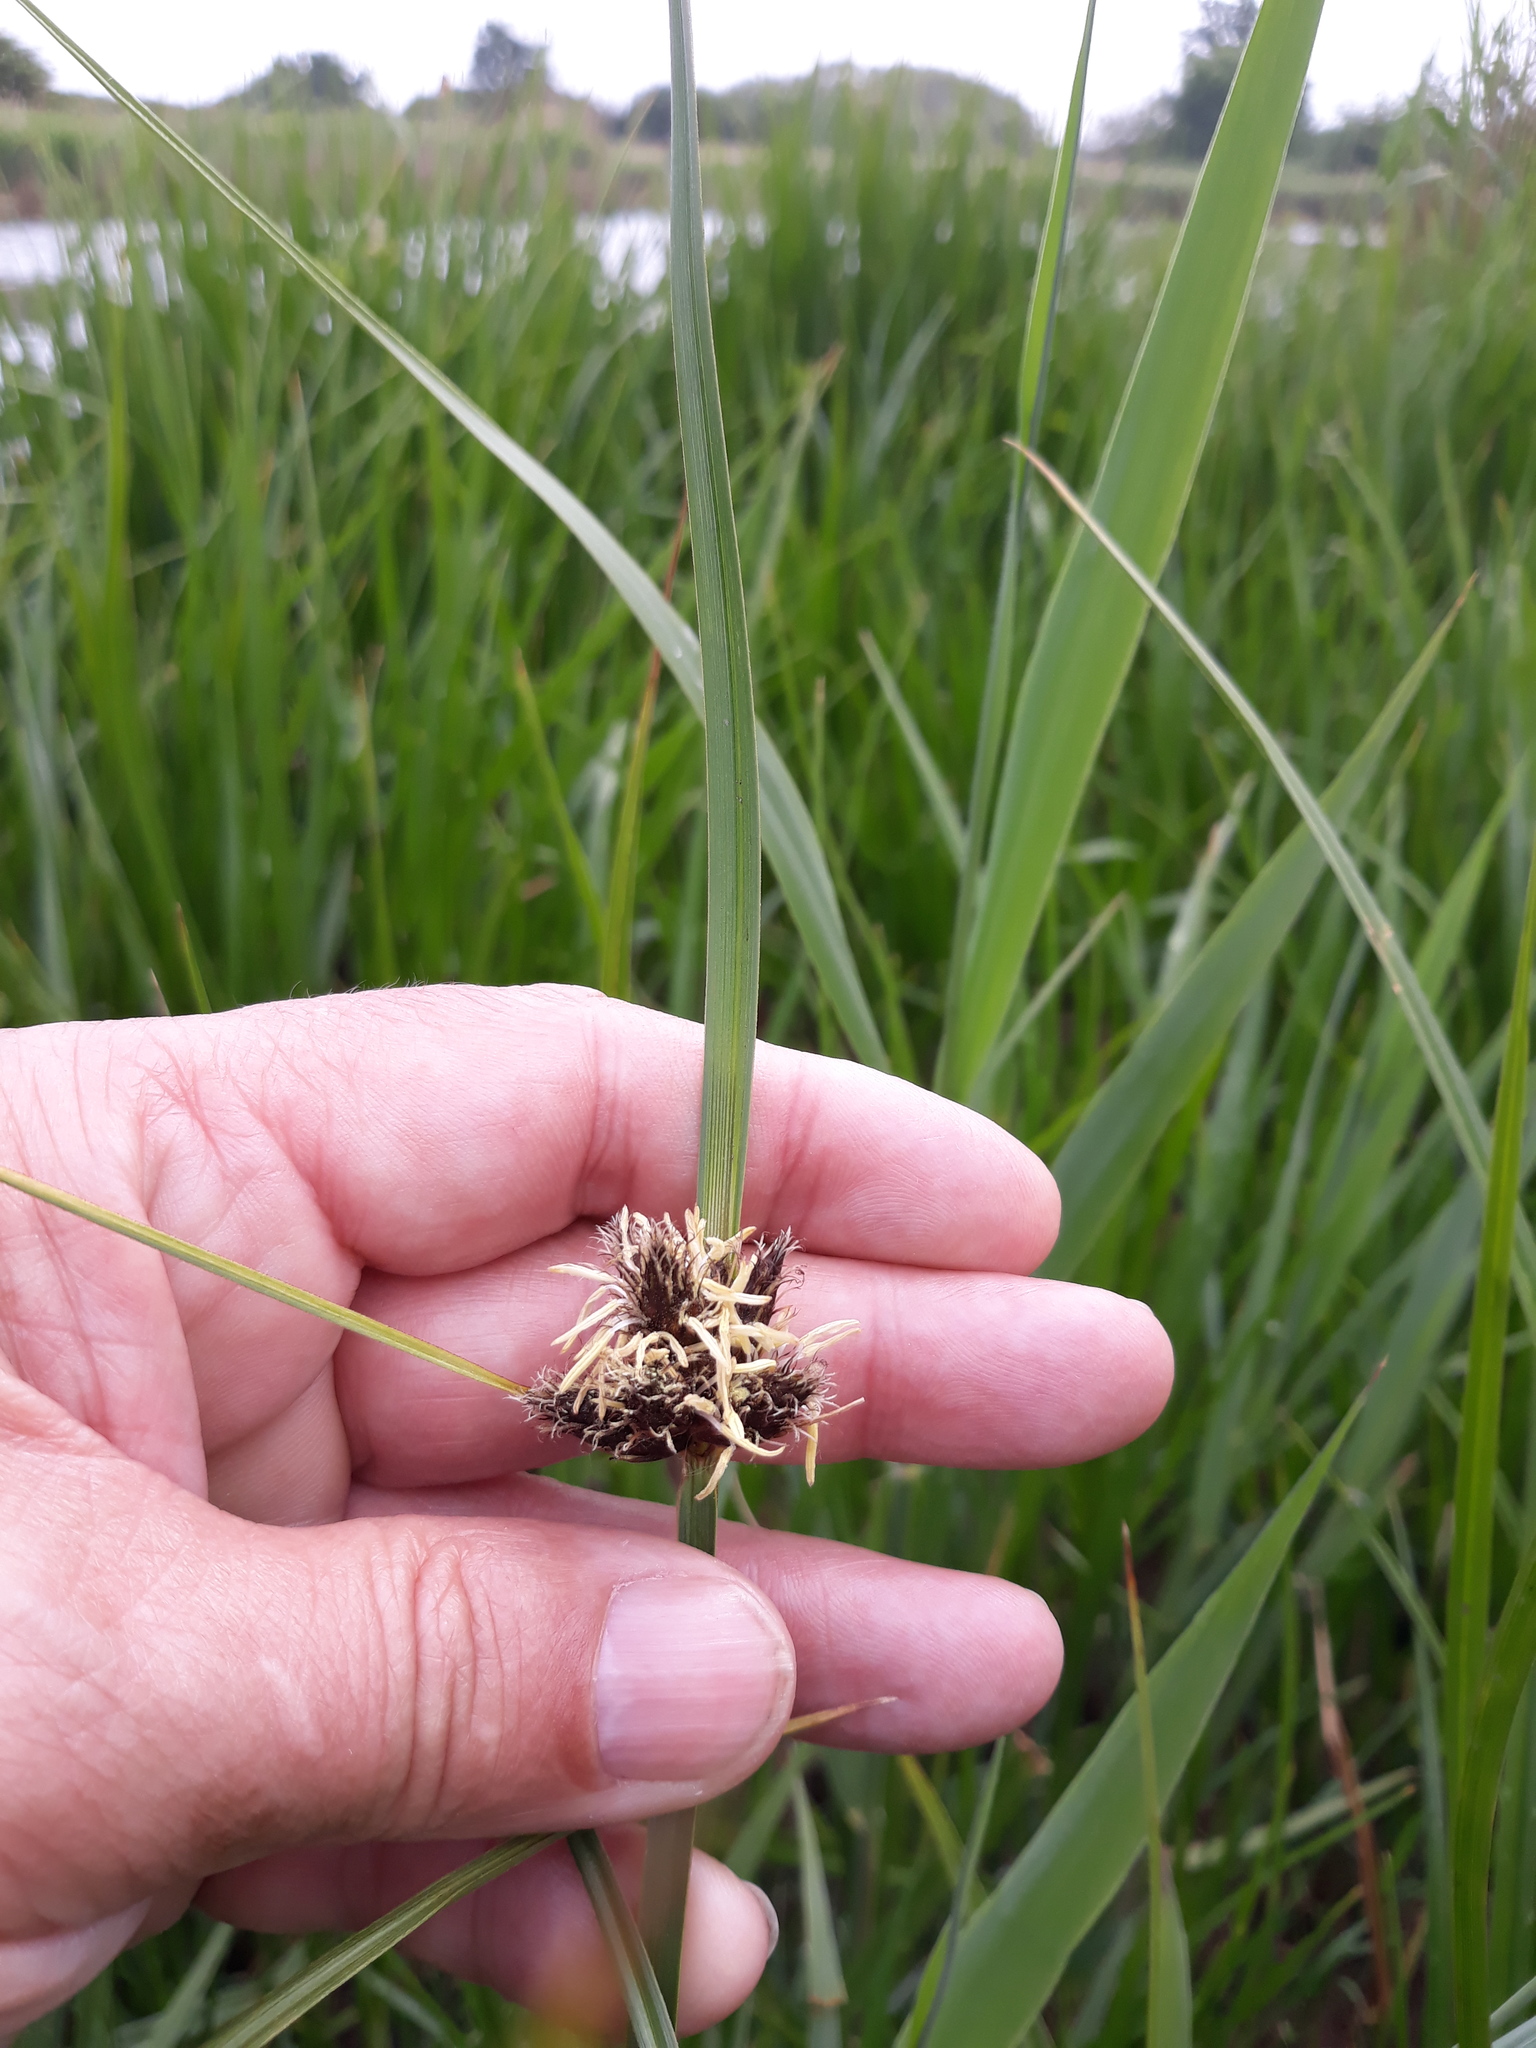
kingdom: Plantae
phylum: Tracheophyta
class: Liliopsida
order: Poales
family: Cyperaceae
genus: Bolboschoenus
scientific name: Bolboschoenus maritimus
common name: Sea club-rush
